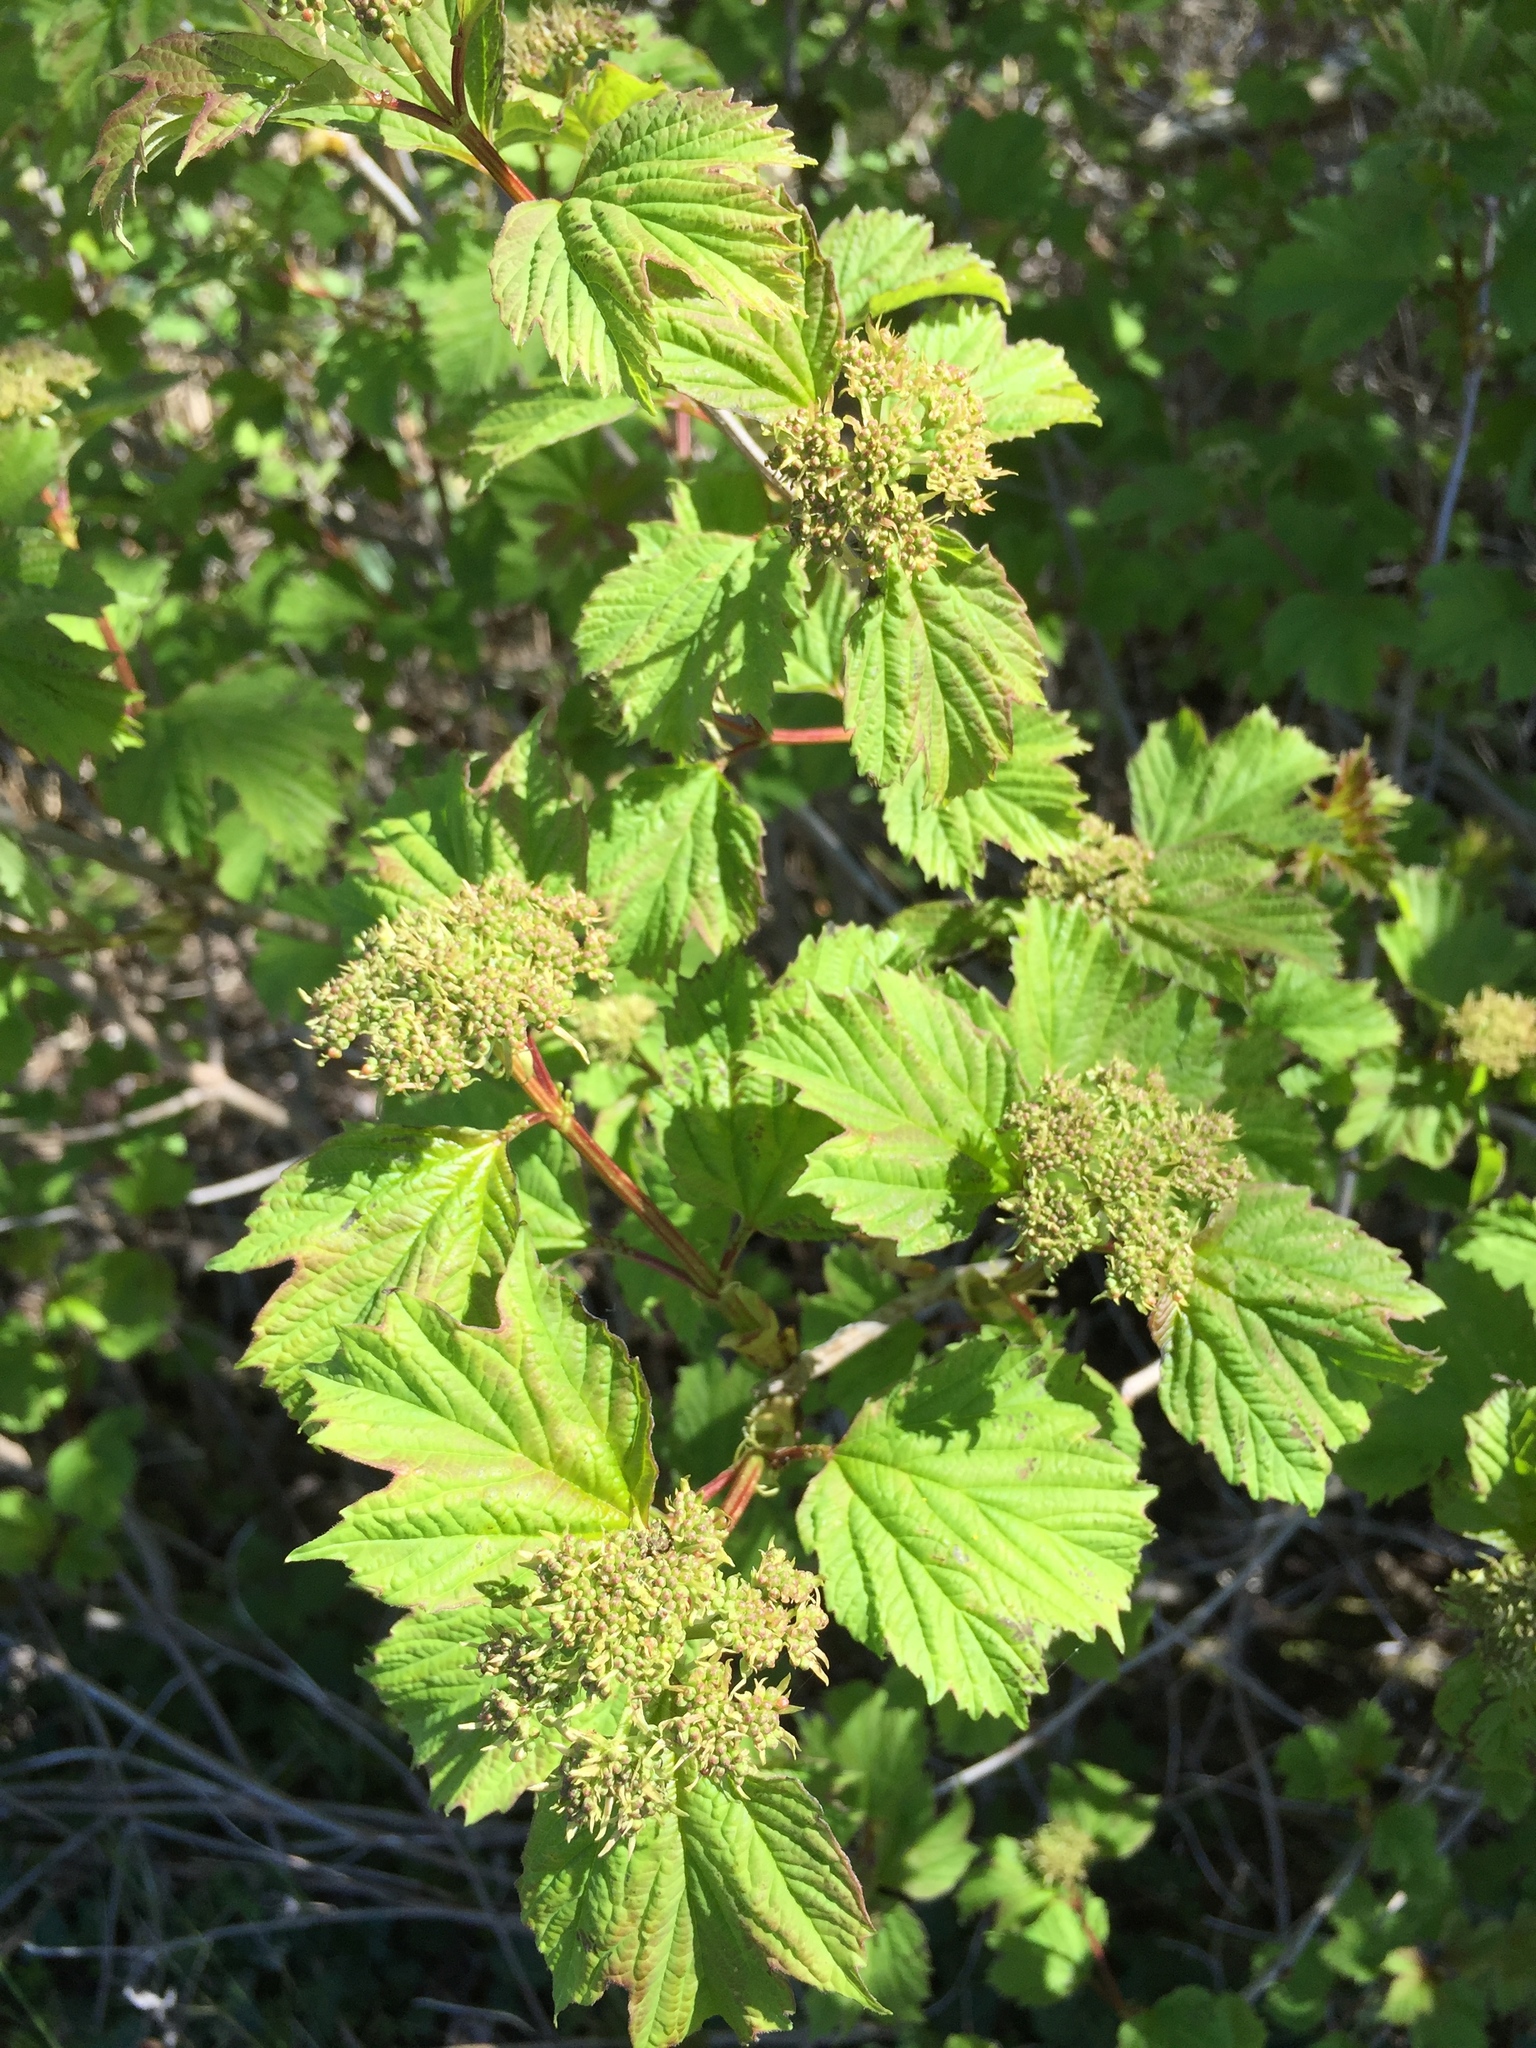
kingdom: Plantae
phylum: Tracheophyta
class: Magnoliopsida
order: Dipsacales
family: Viburnaceae
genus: Viburnum
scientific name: Viburnum opulus
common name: Guelder-rose
